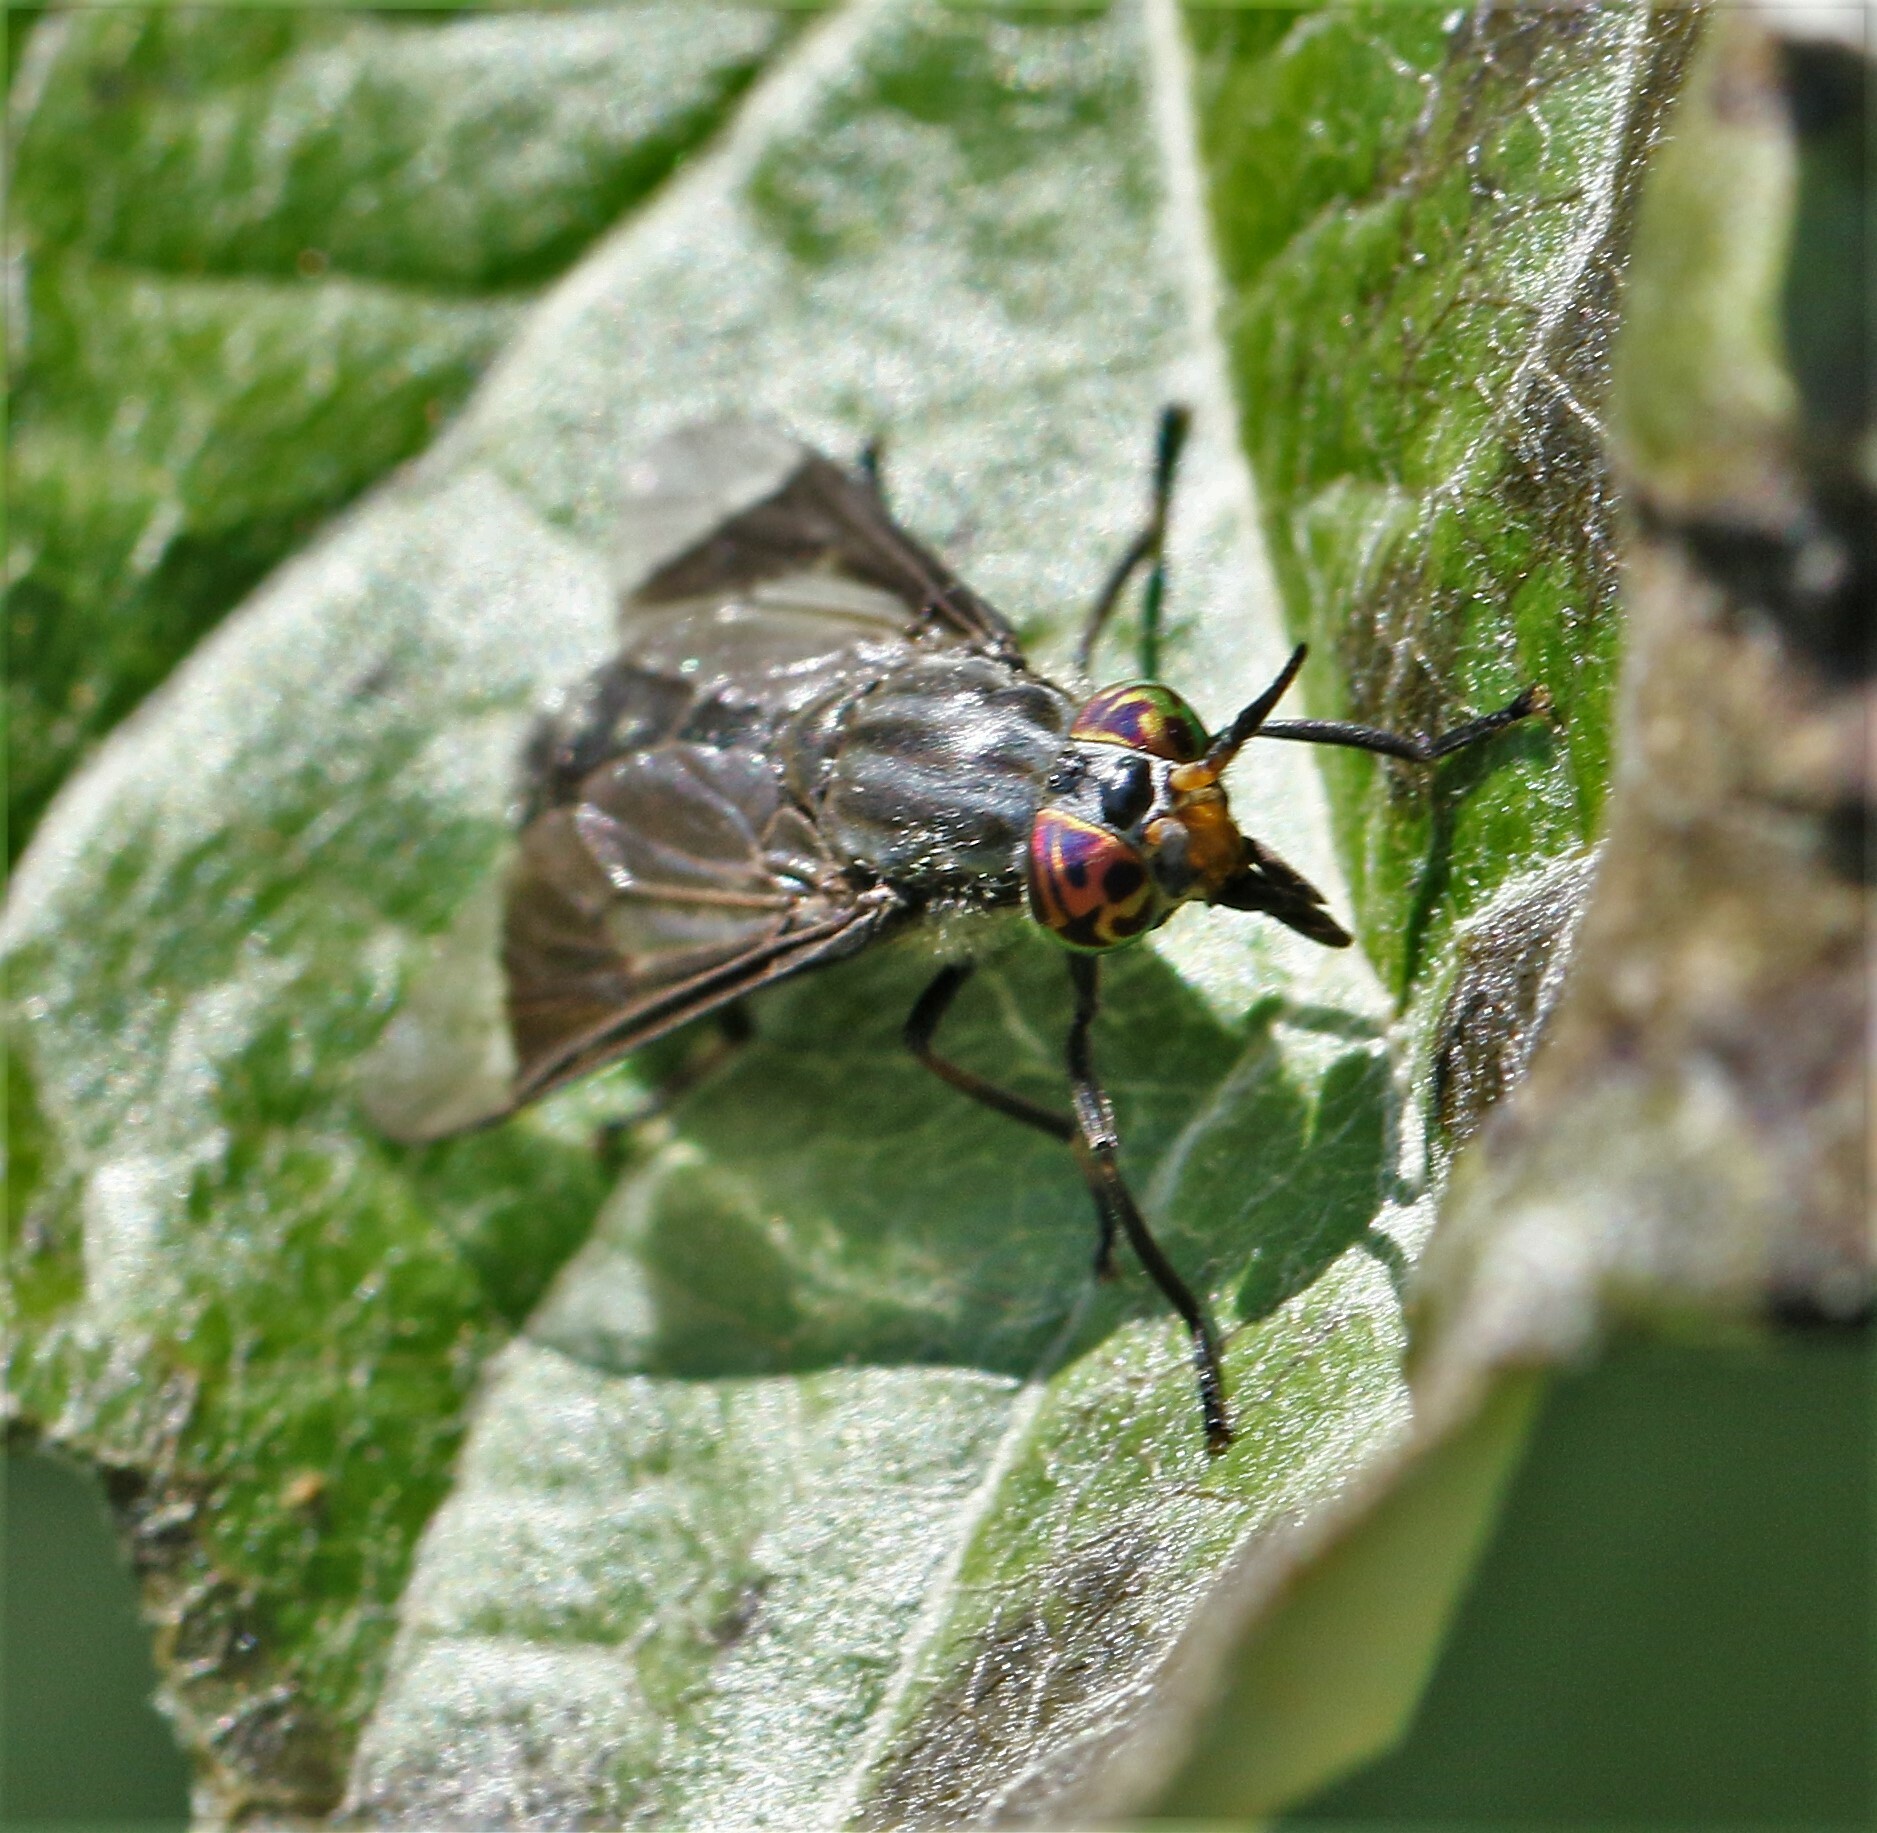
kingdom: Animalia
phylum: Arthropoda
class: Insecta
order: Diptera
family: Tabanidae
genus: Chrysops
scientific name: Chrysops niger
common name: Black deer fly
